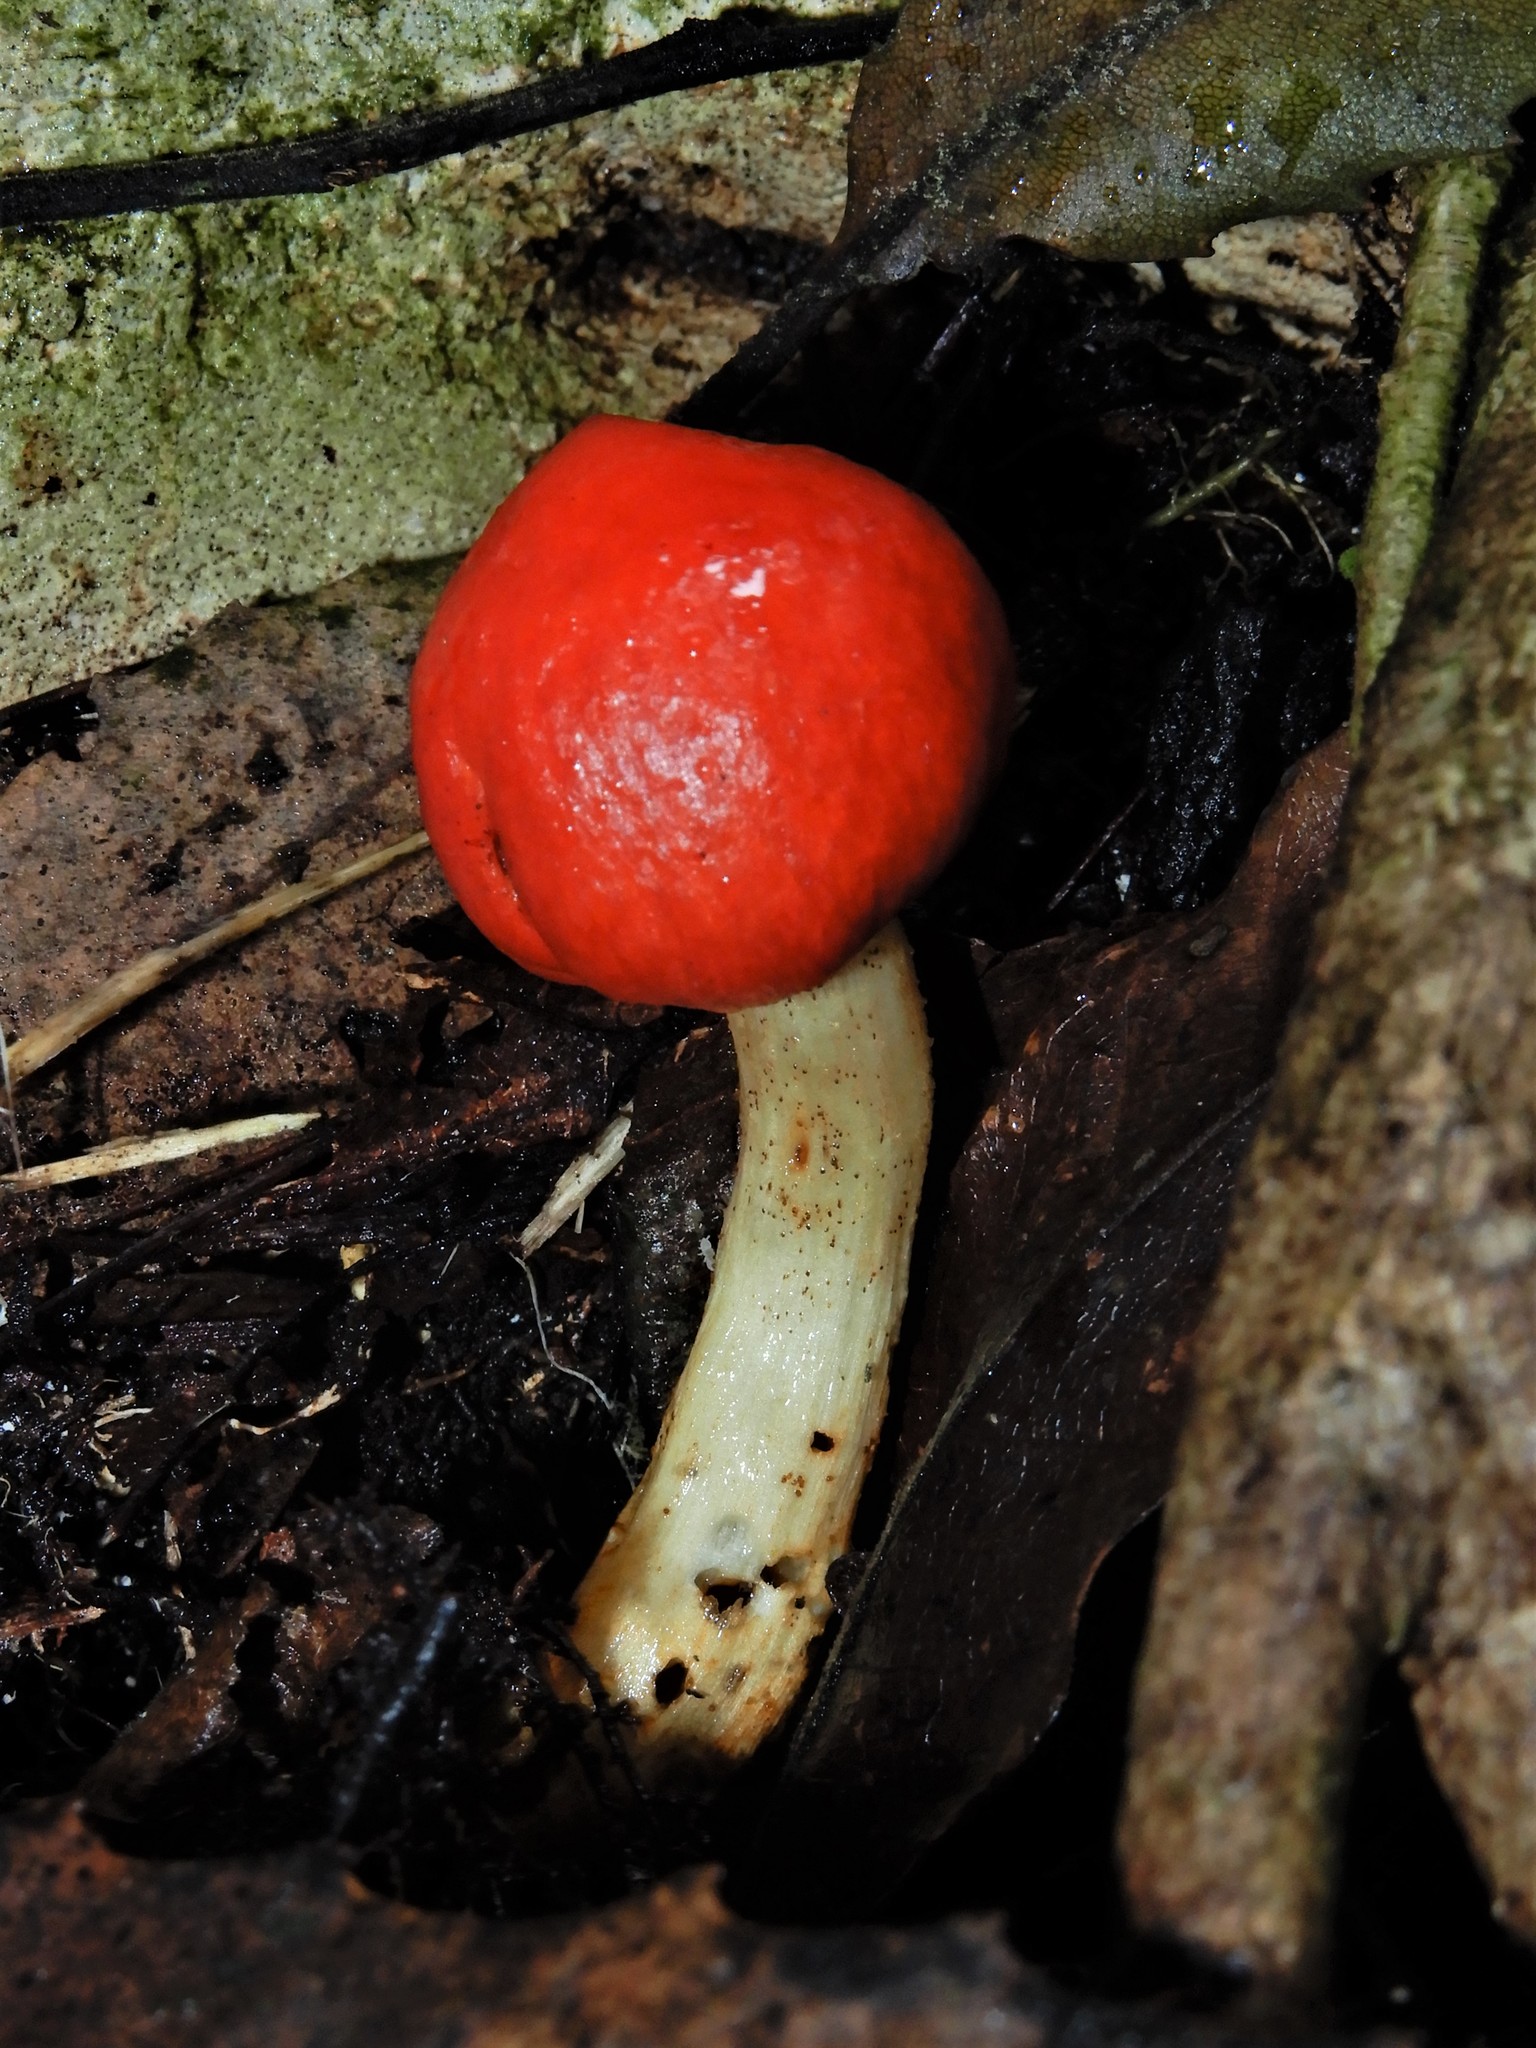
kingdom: Fungi
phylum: Basidiomycota
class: Agaricomycetes
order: Agaricales
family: Strophariaceae
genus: Leratiomyces
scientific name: Leratiomyces erythrocephalus
